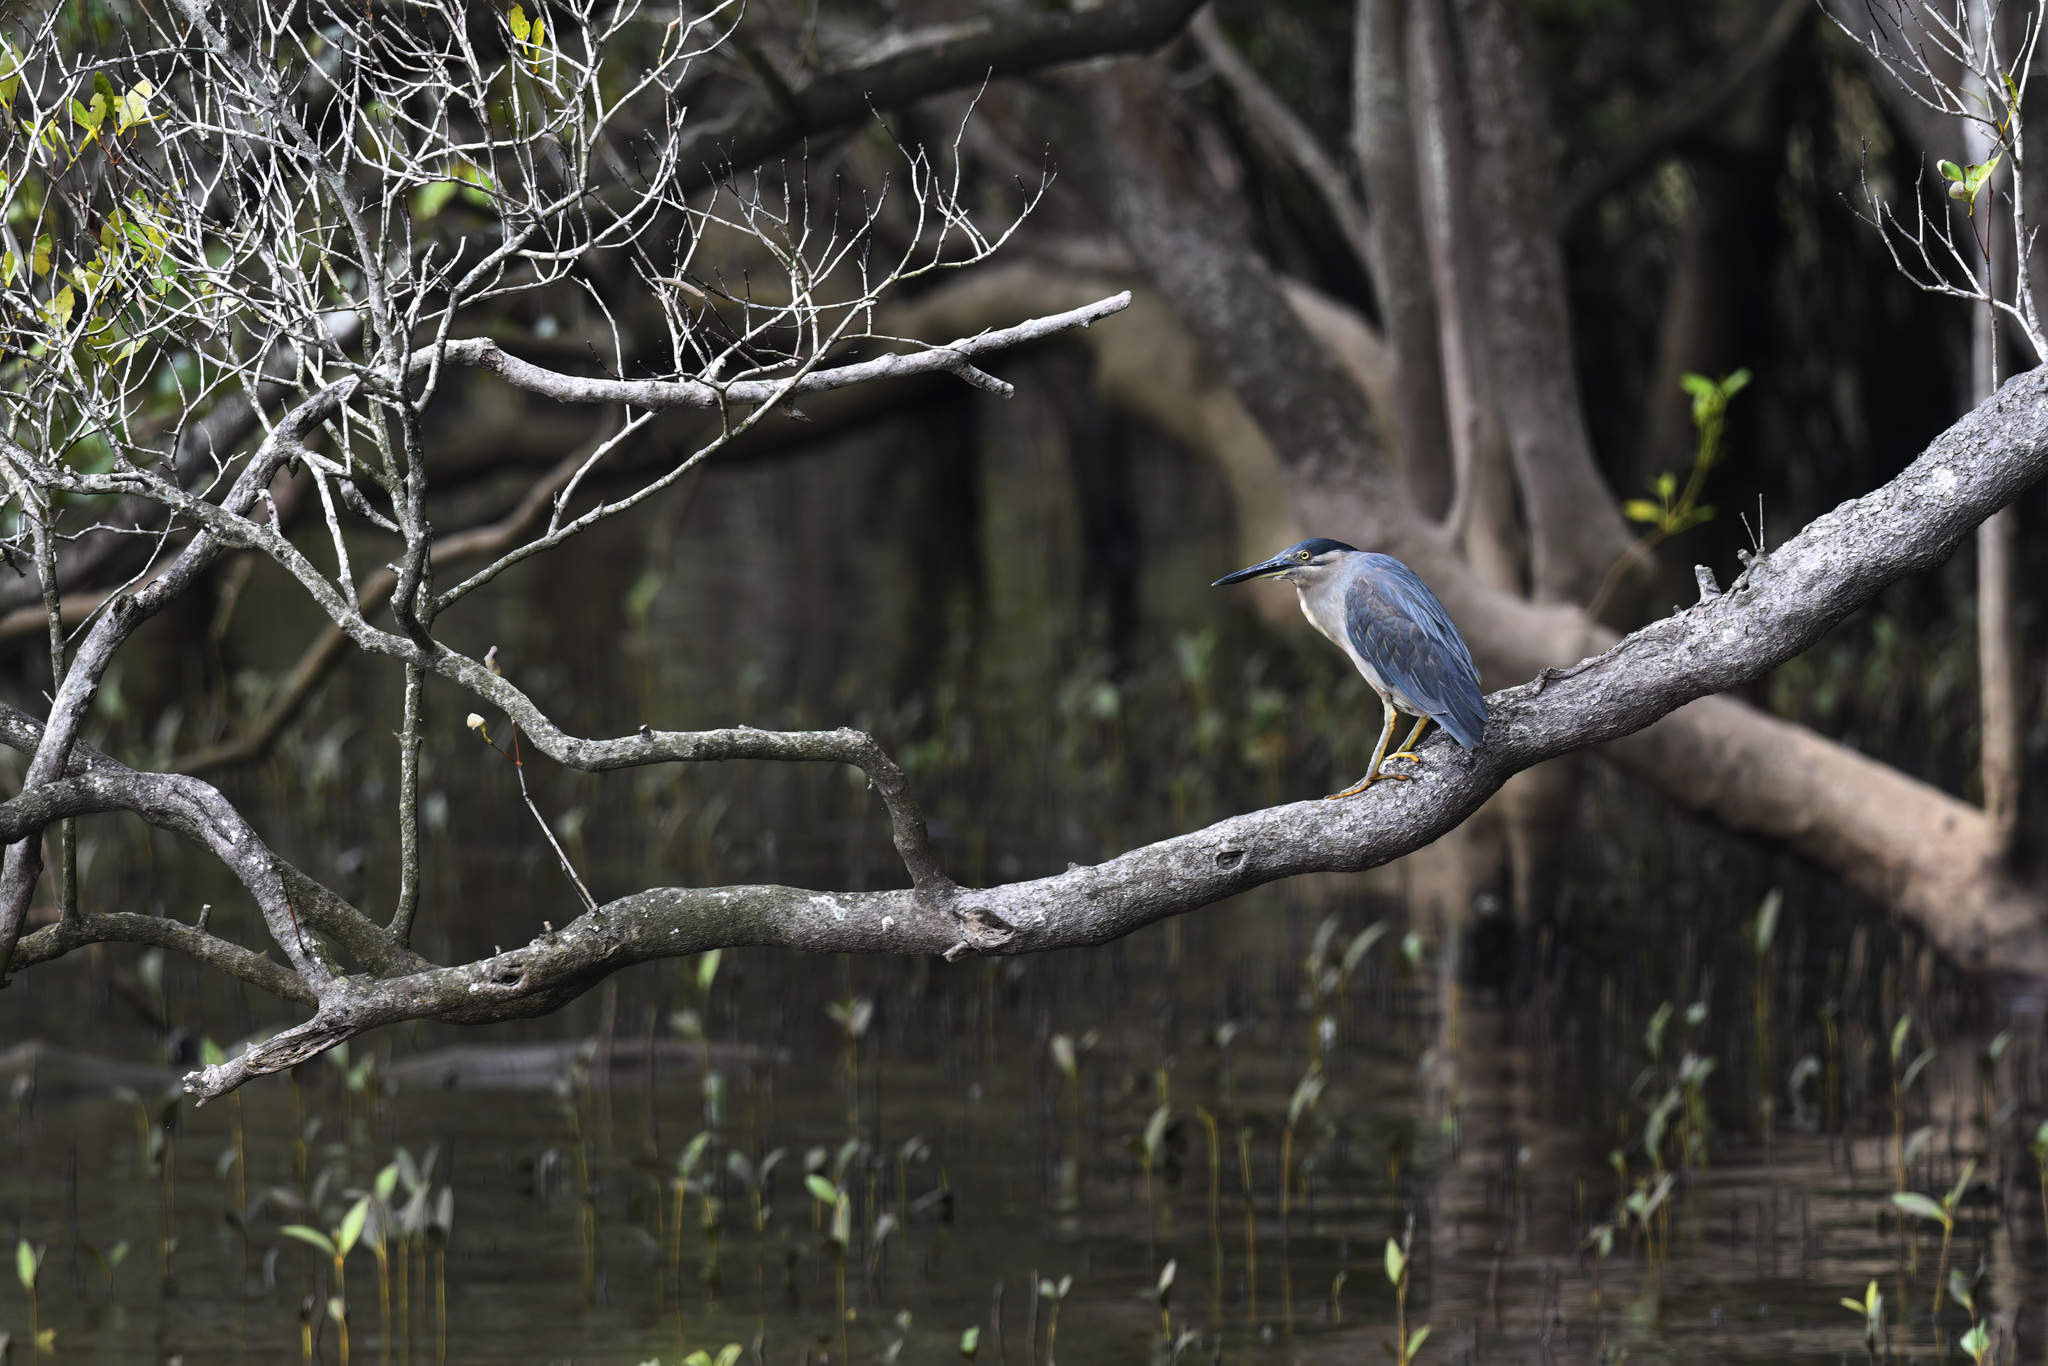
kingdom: Animalia
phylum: Chordata
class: Aves
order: Pelecaniformes
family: Ardeidae
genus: Butorides
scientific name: Butorides striata
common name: Striated heron
